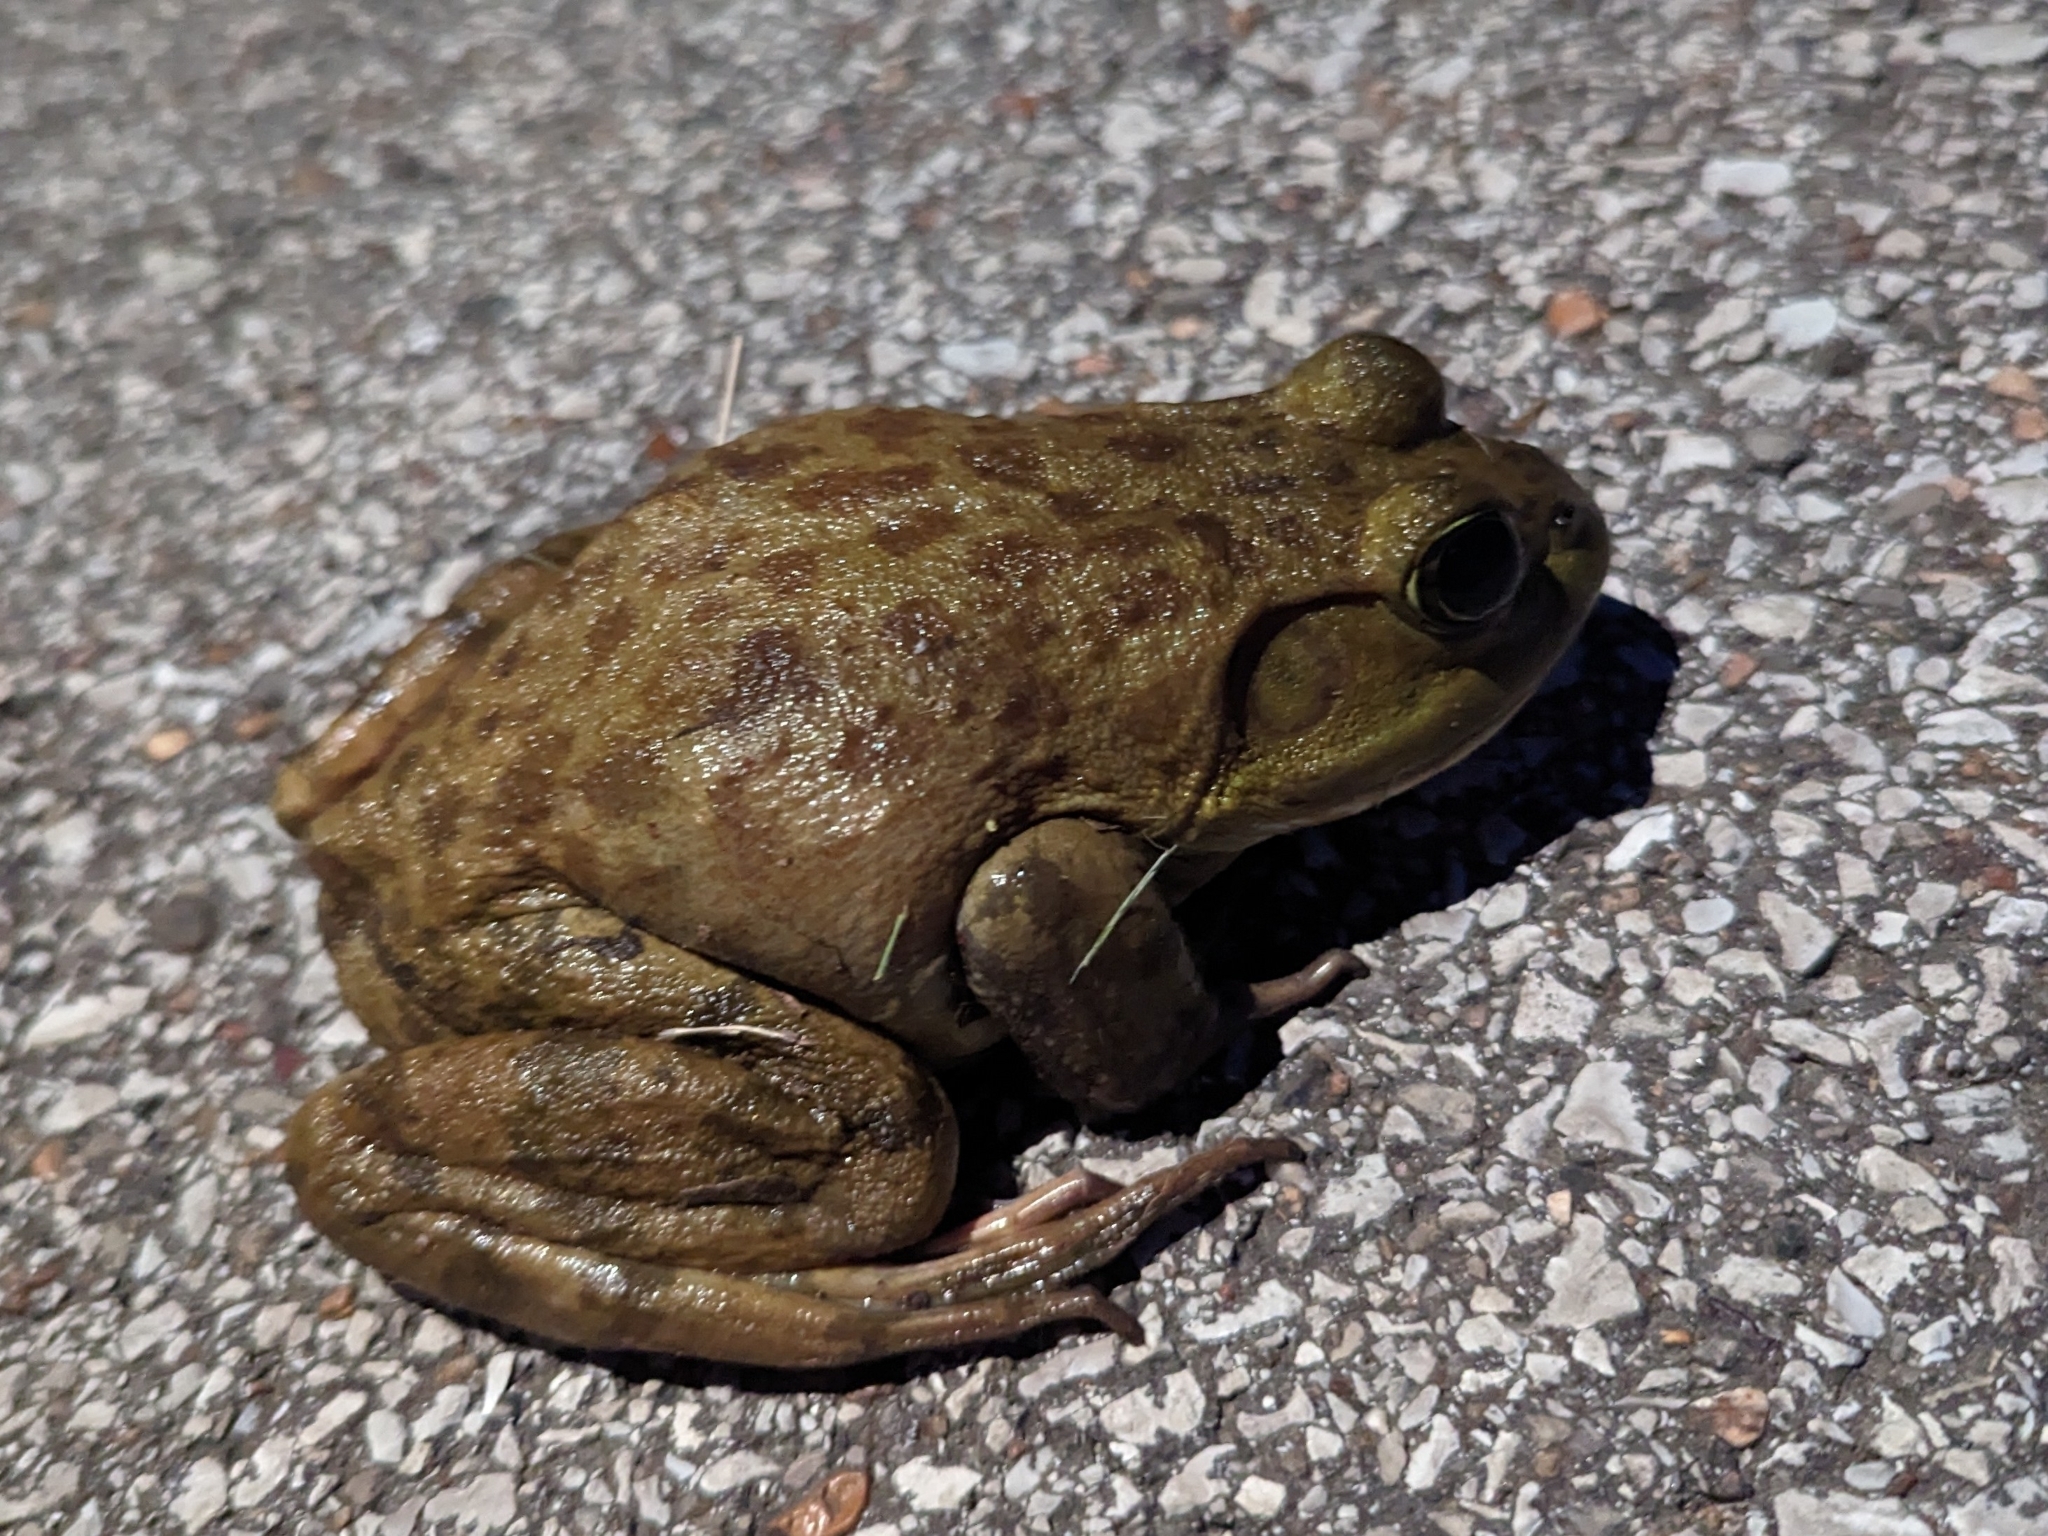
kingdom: Animalia
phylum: Chordata
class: Amphibia
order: Anura
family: Ranidae
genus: Lithobates
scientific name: Lithobates catesbeianus
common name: American bullfrog
